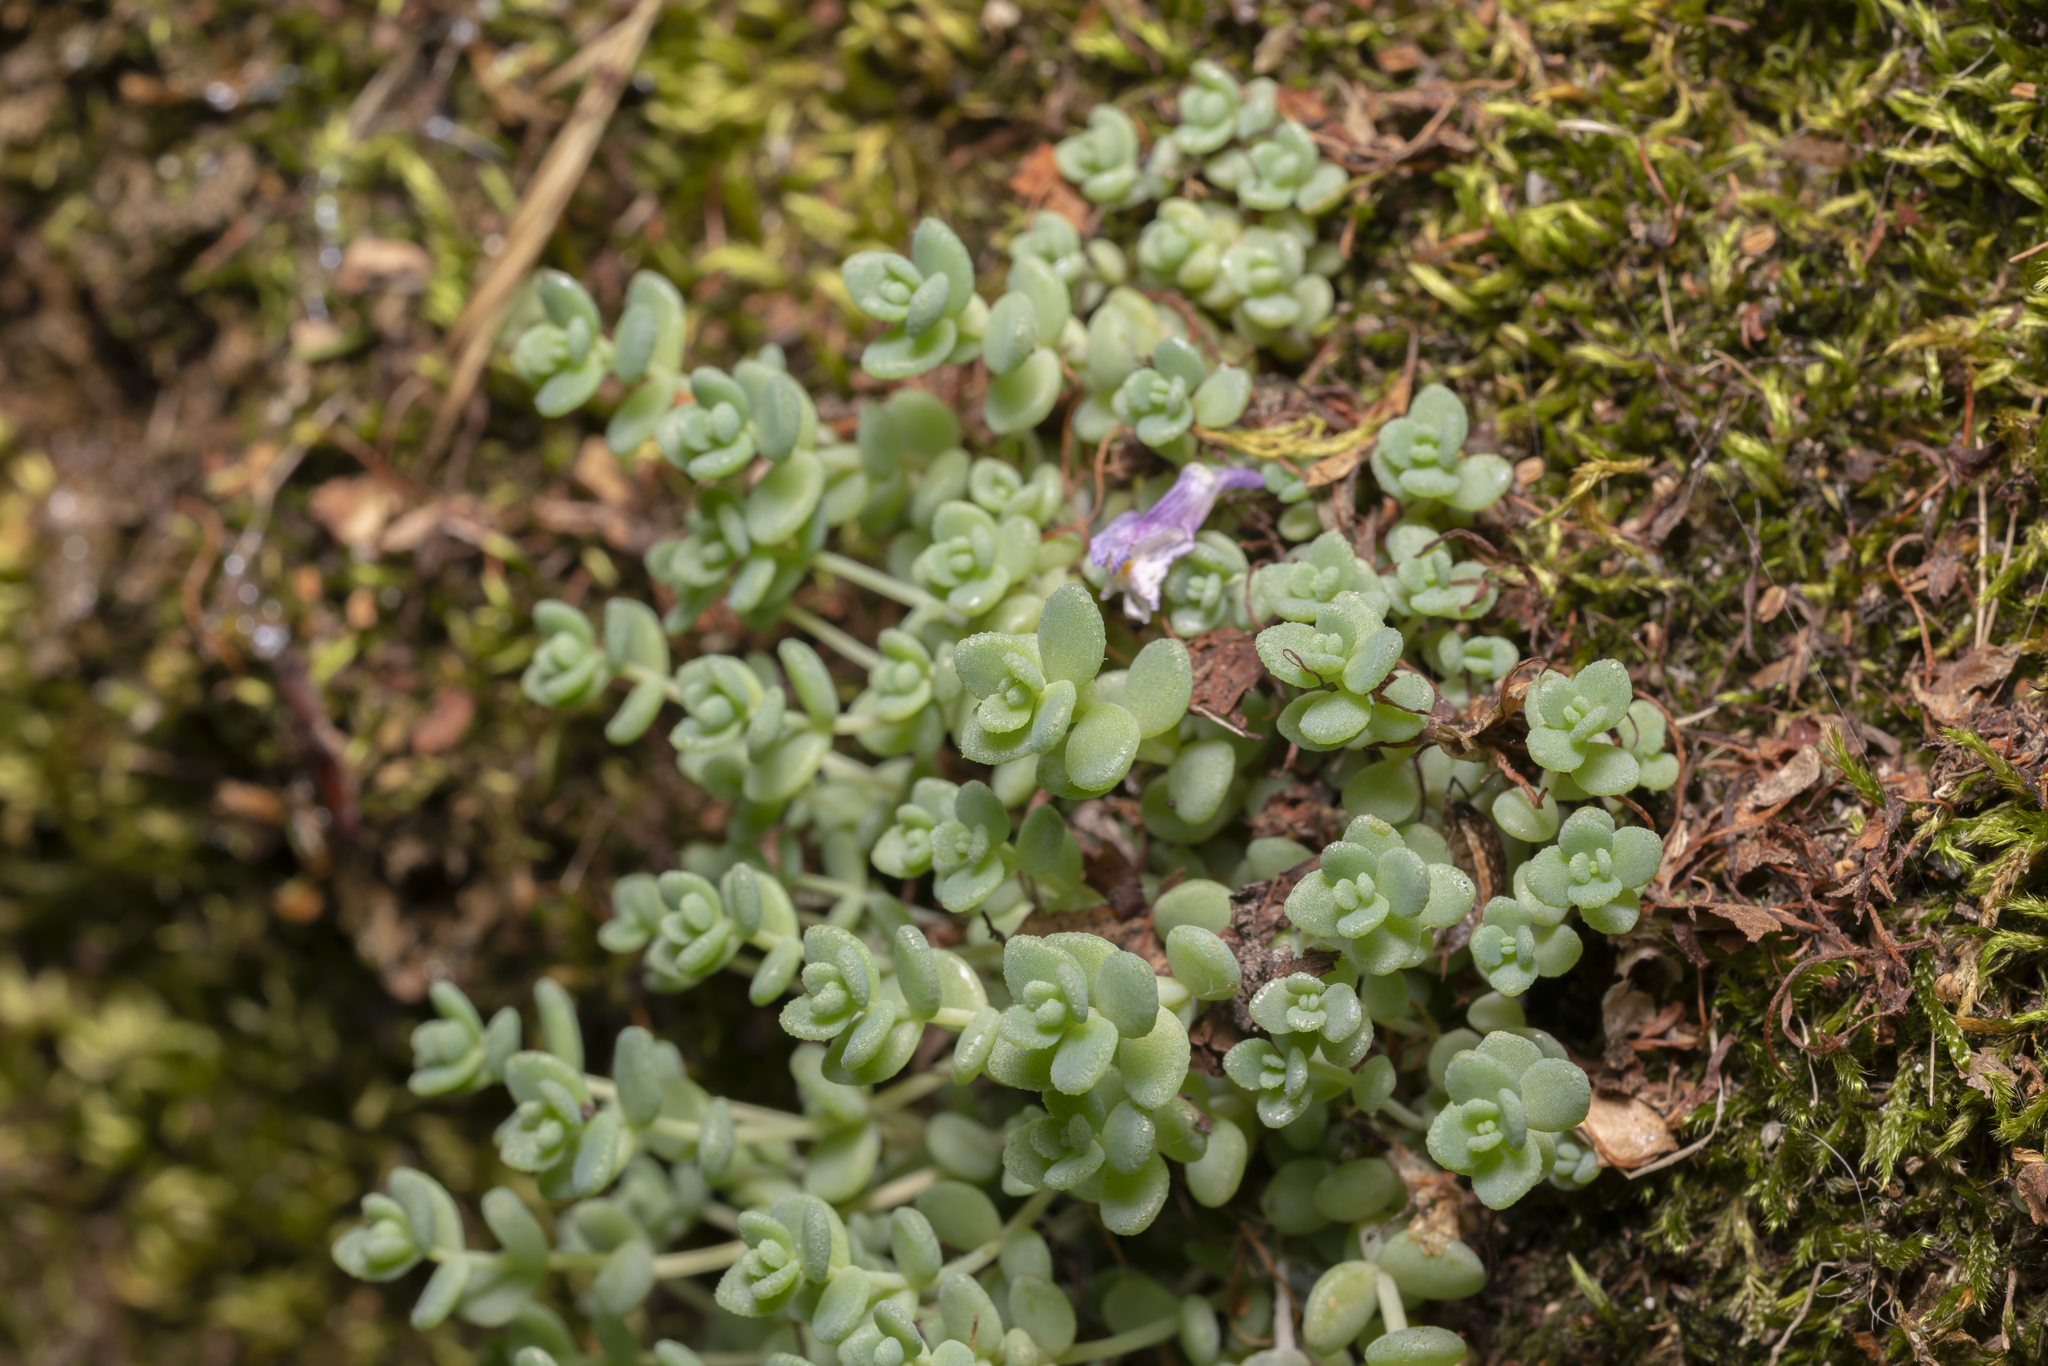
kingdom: Plantae
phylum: Tracheophyta
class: Magnoliopsida
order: Saxifragales
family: Crassulaceae
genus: Sedum
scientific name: Sedum dasyphyllum
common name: Thick-leaf stonecrop
